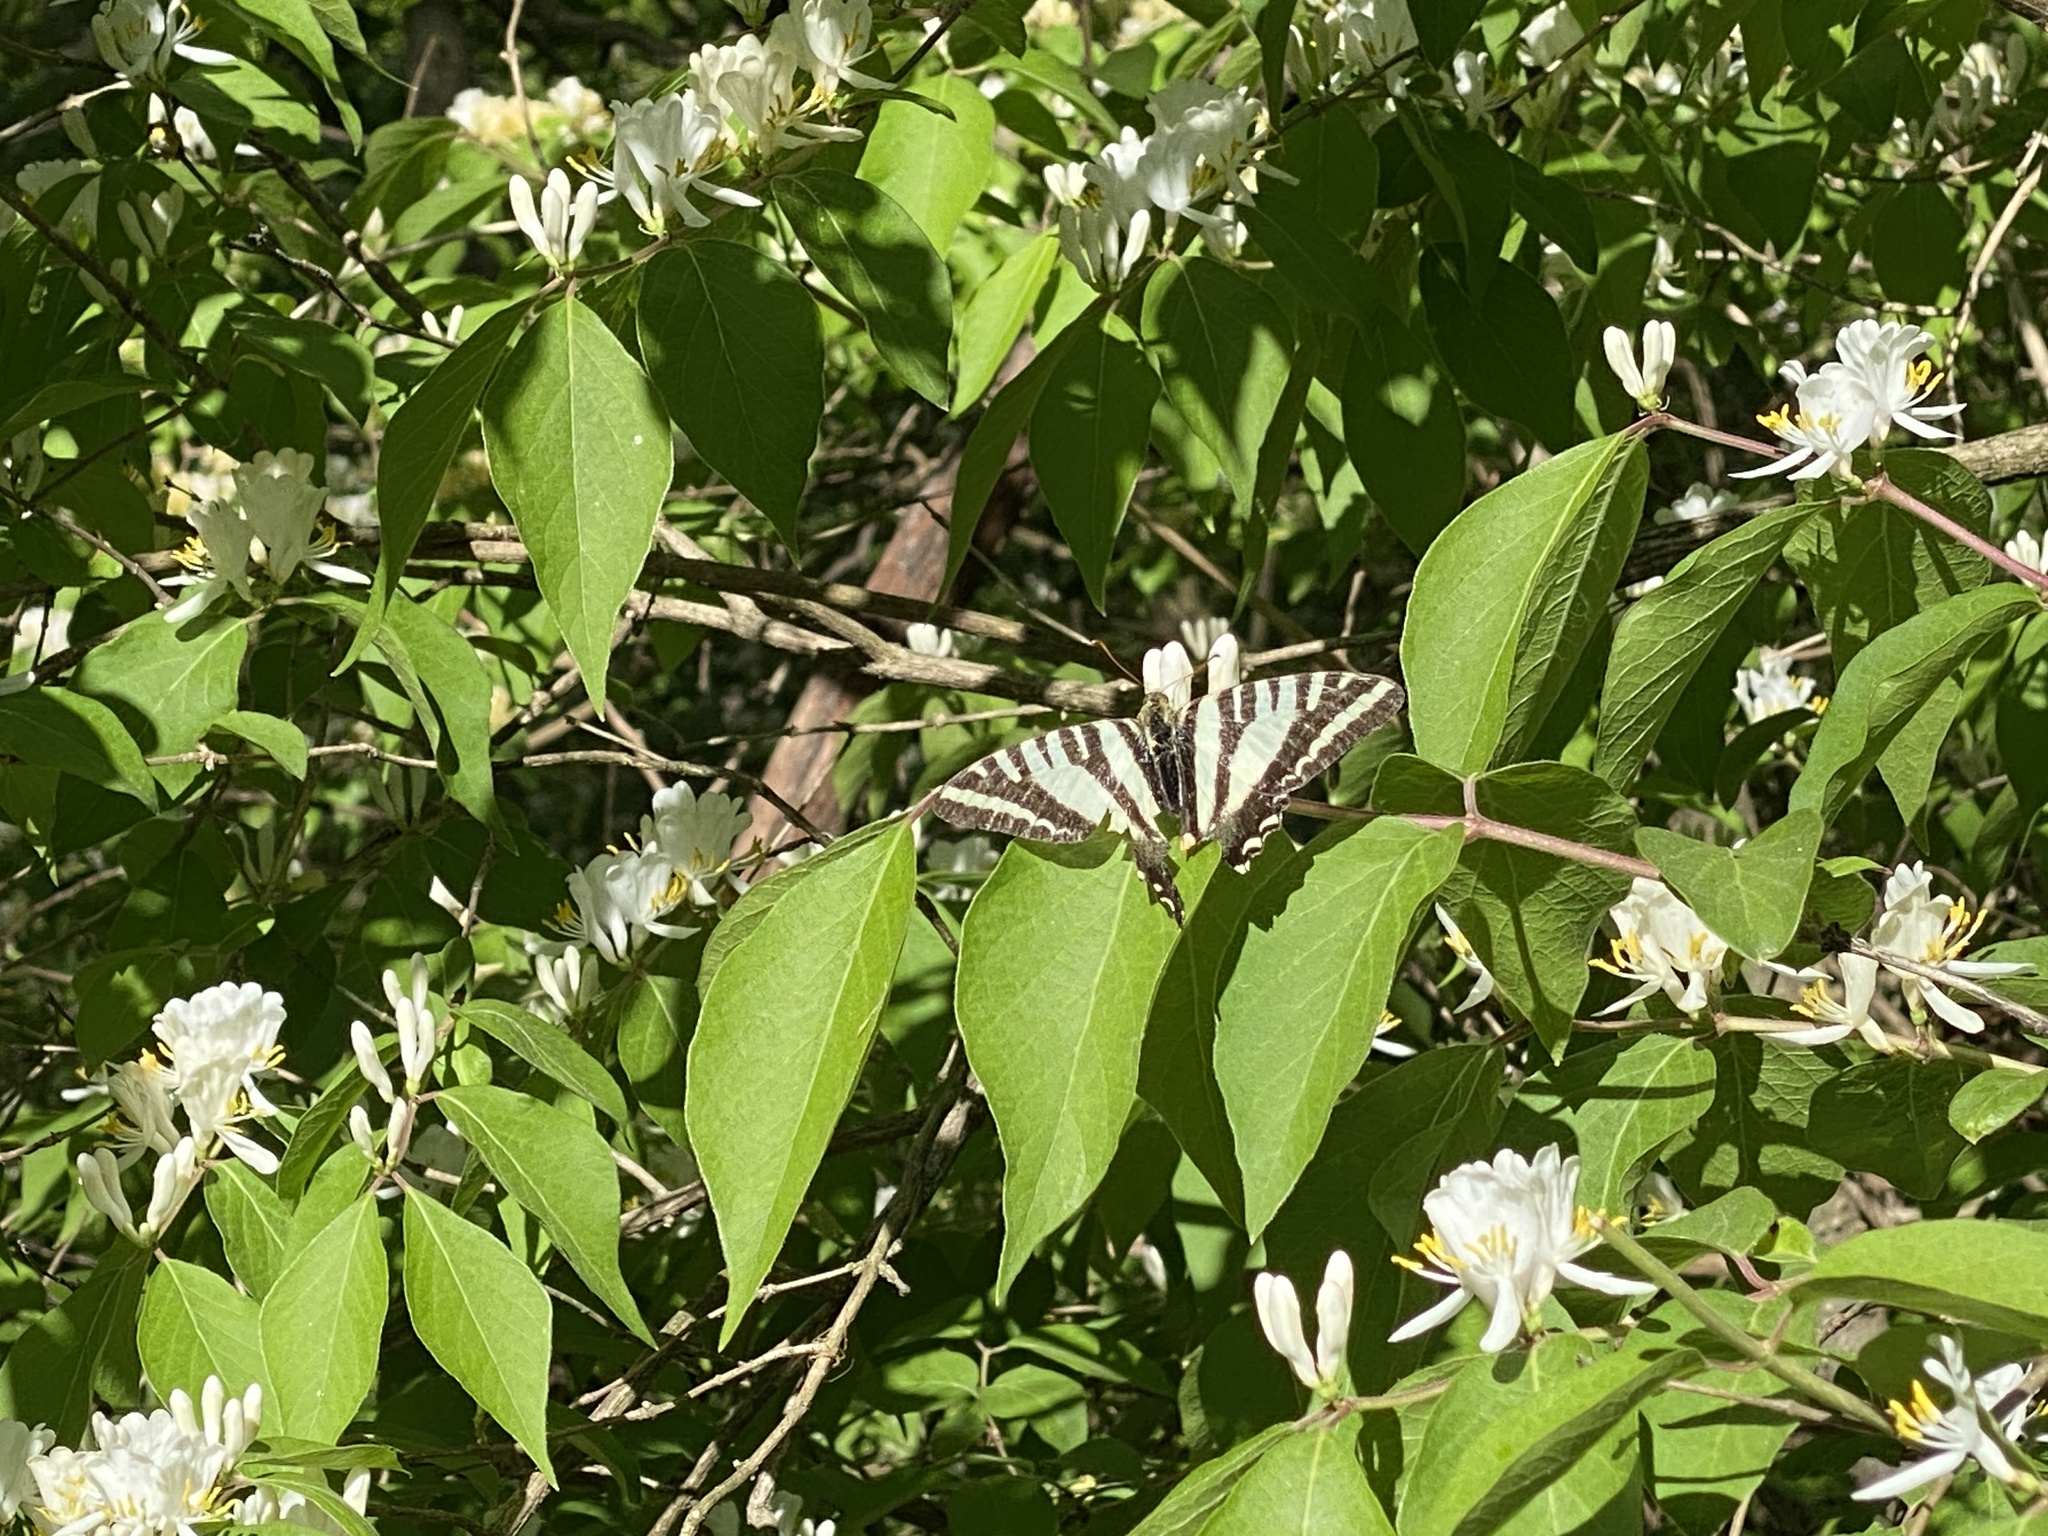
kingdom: Animalia
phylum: Arthropoda
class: Insecta
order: Lepidoptera
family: Papilionidae
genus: Protographium
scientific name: Protographium marcellus
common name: Zebra swallowtail
